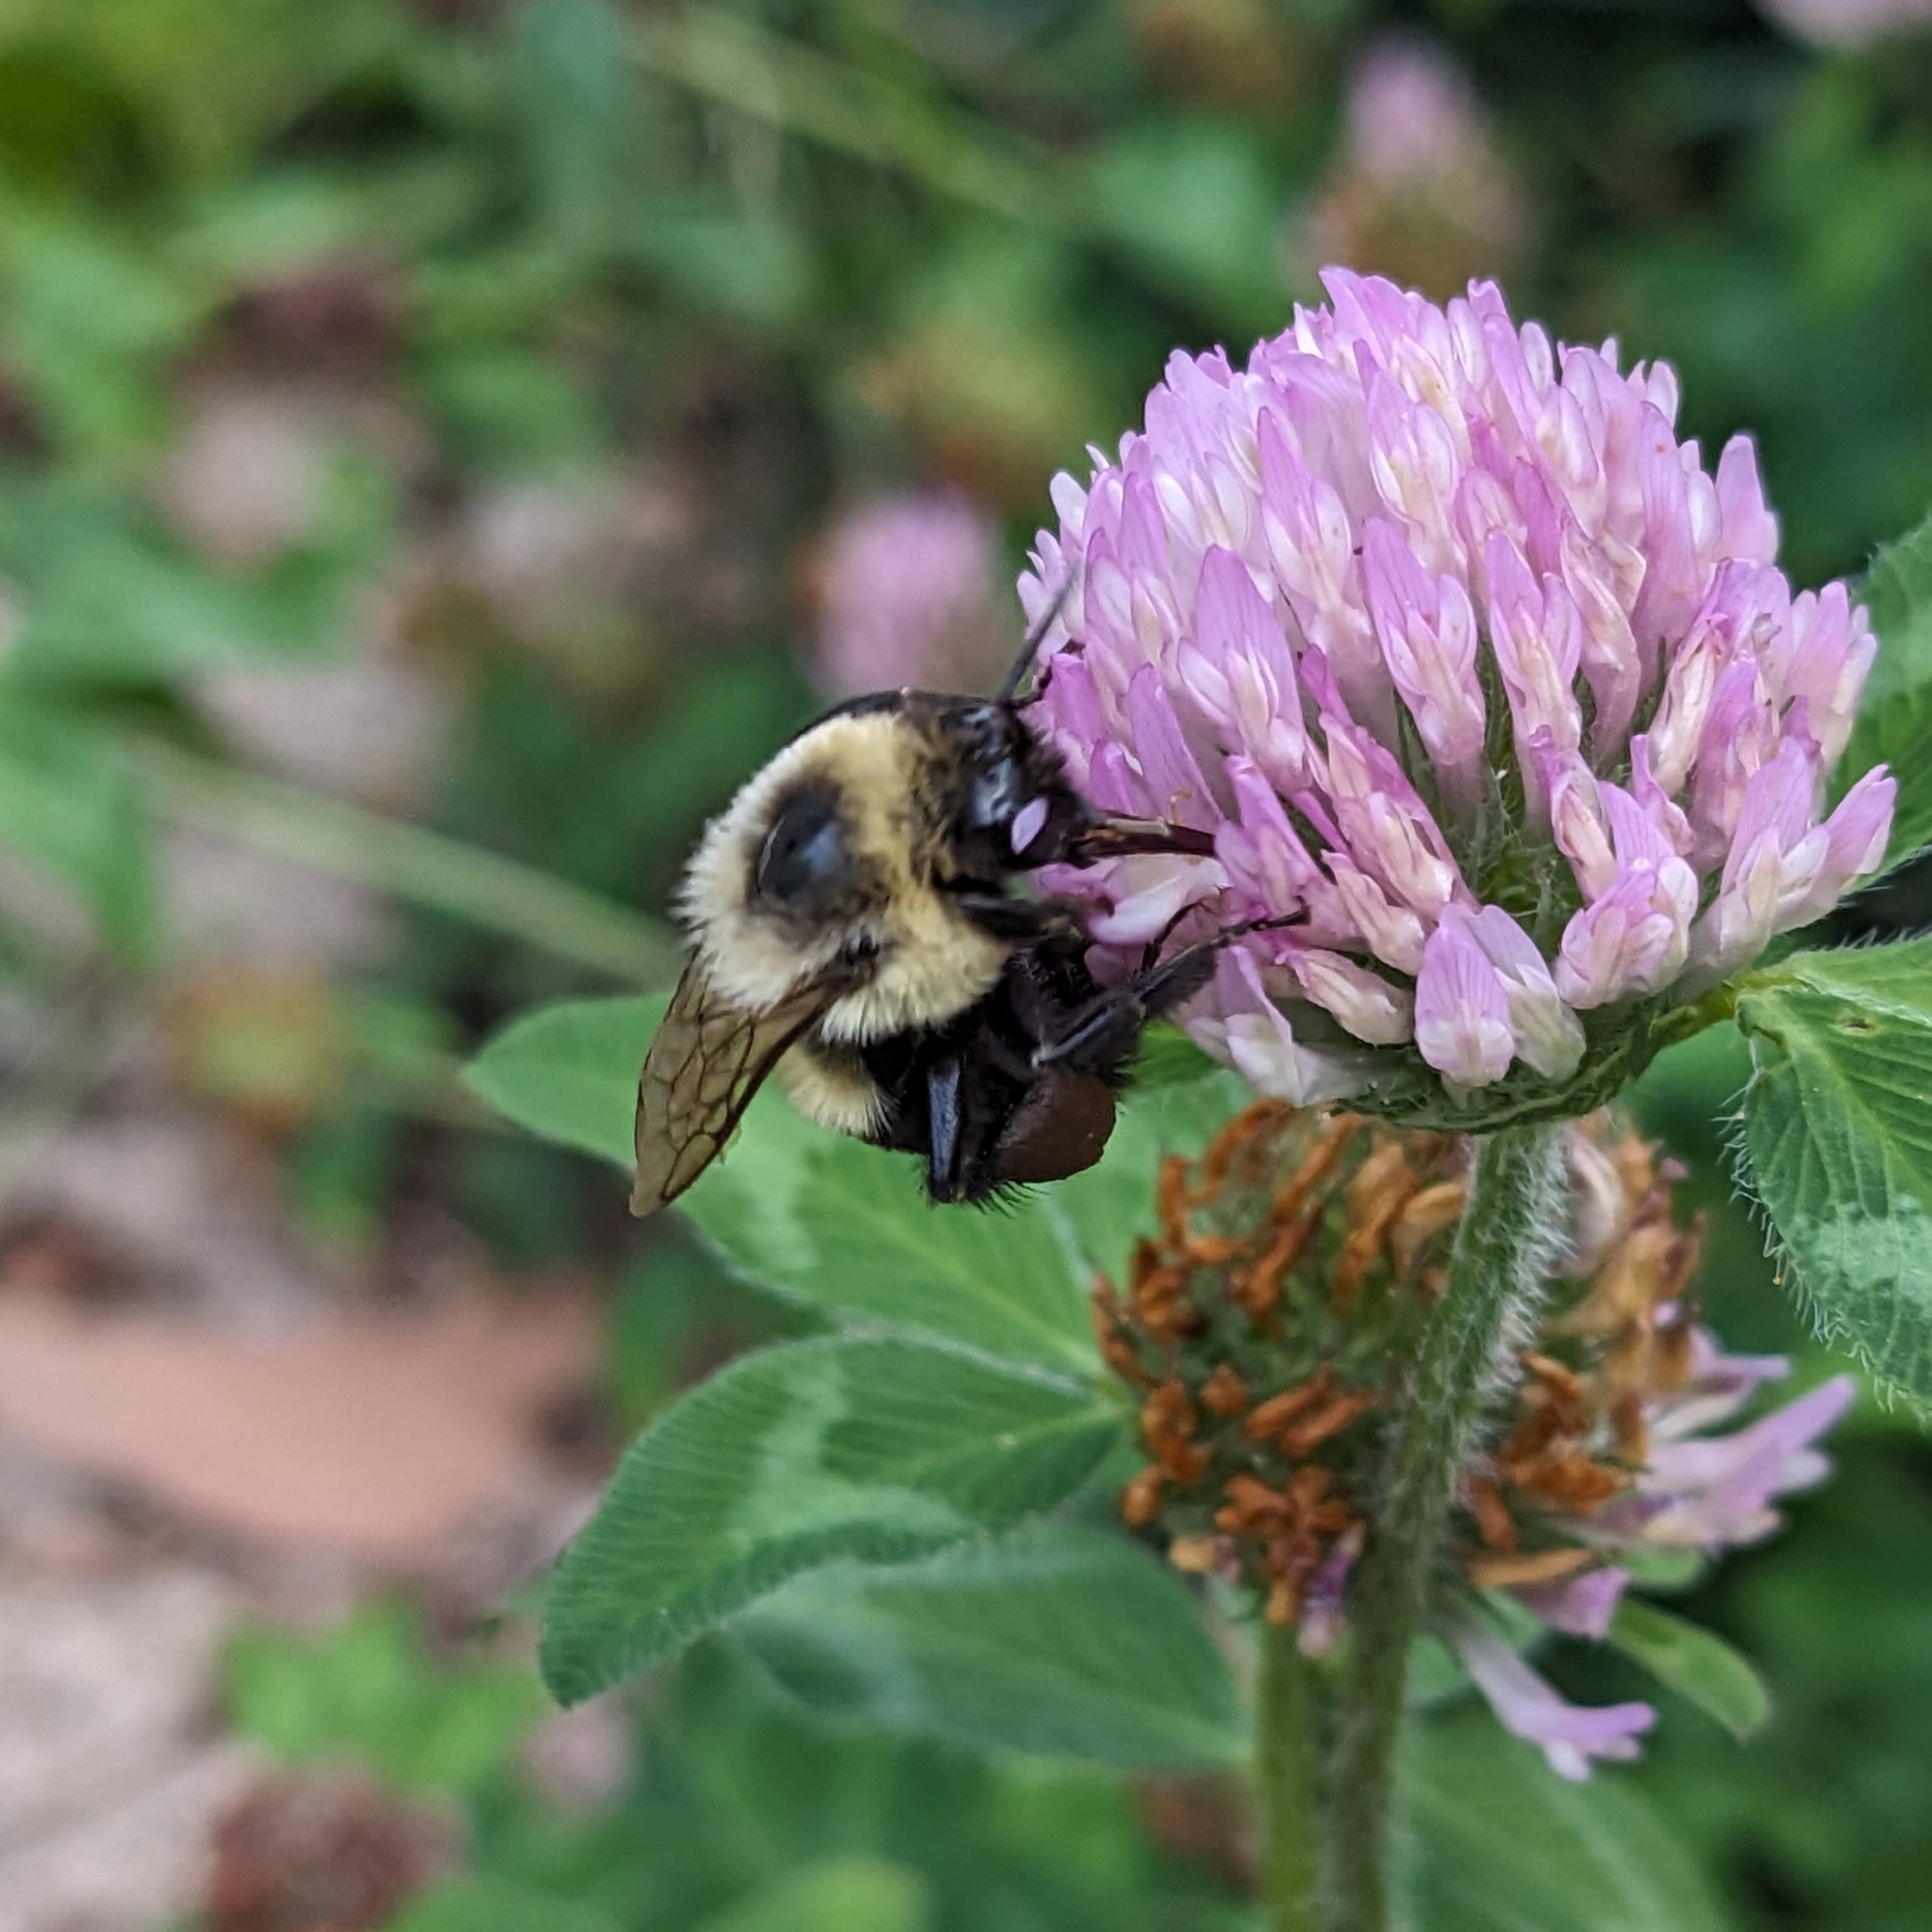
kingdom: Animalia
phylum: Arthropoda
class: Insecta
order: Hymenoptera
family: Apidae
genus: Bombus
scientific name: Bombus impatiens
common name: Common eastern bumble bee
